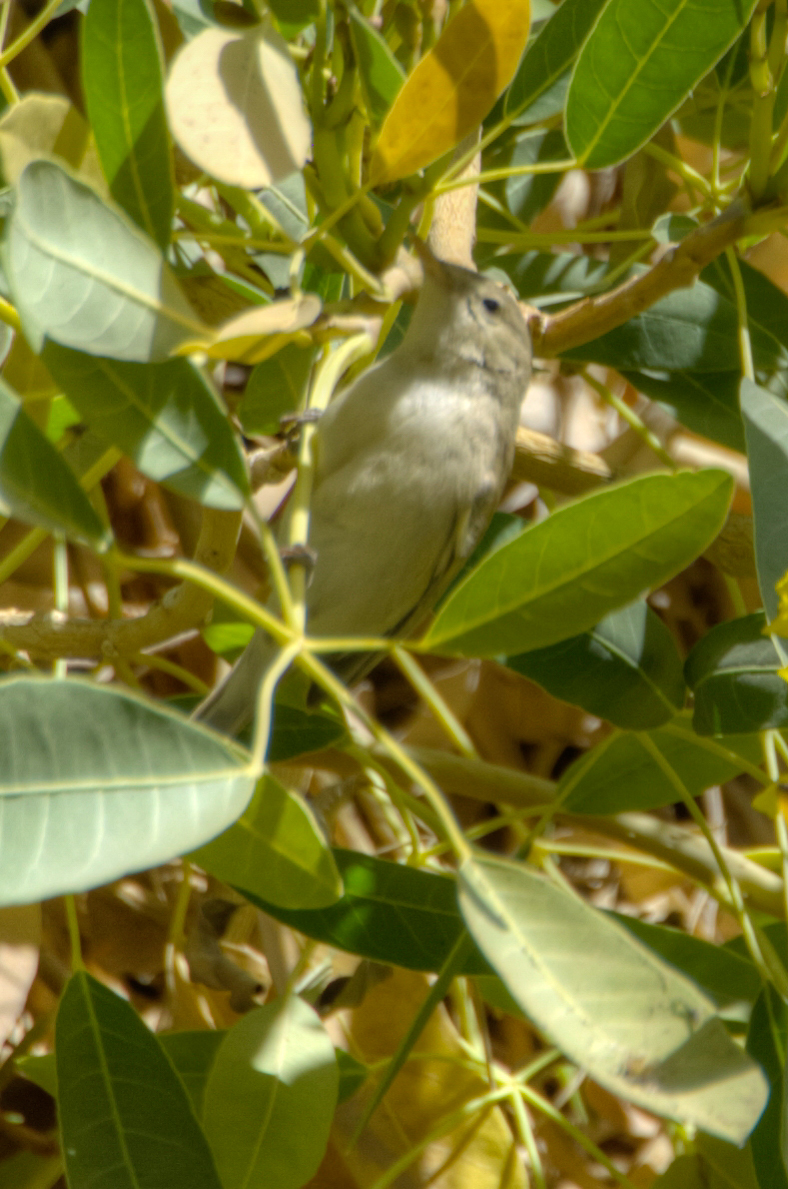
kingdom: Animalia
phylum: Chordata
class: Aves
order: Passeriformes
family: Acrocephalidae
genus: Iduna
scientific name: Iduna pallida
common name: Eastern olivaceous warbler
